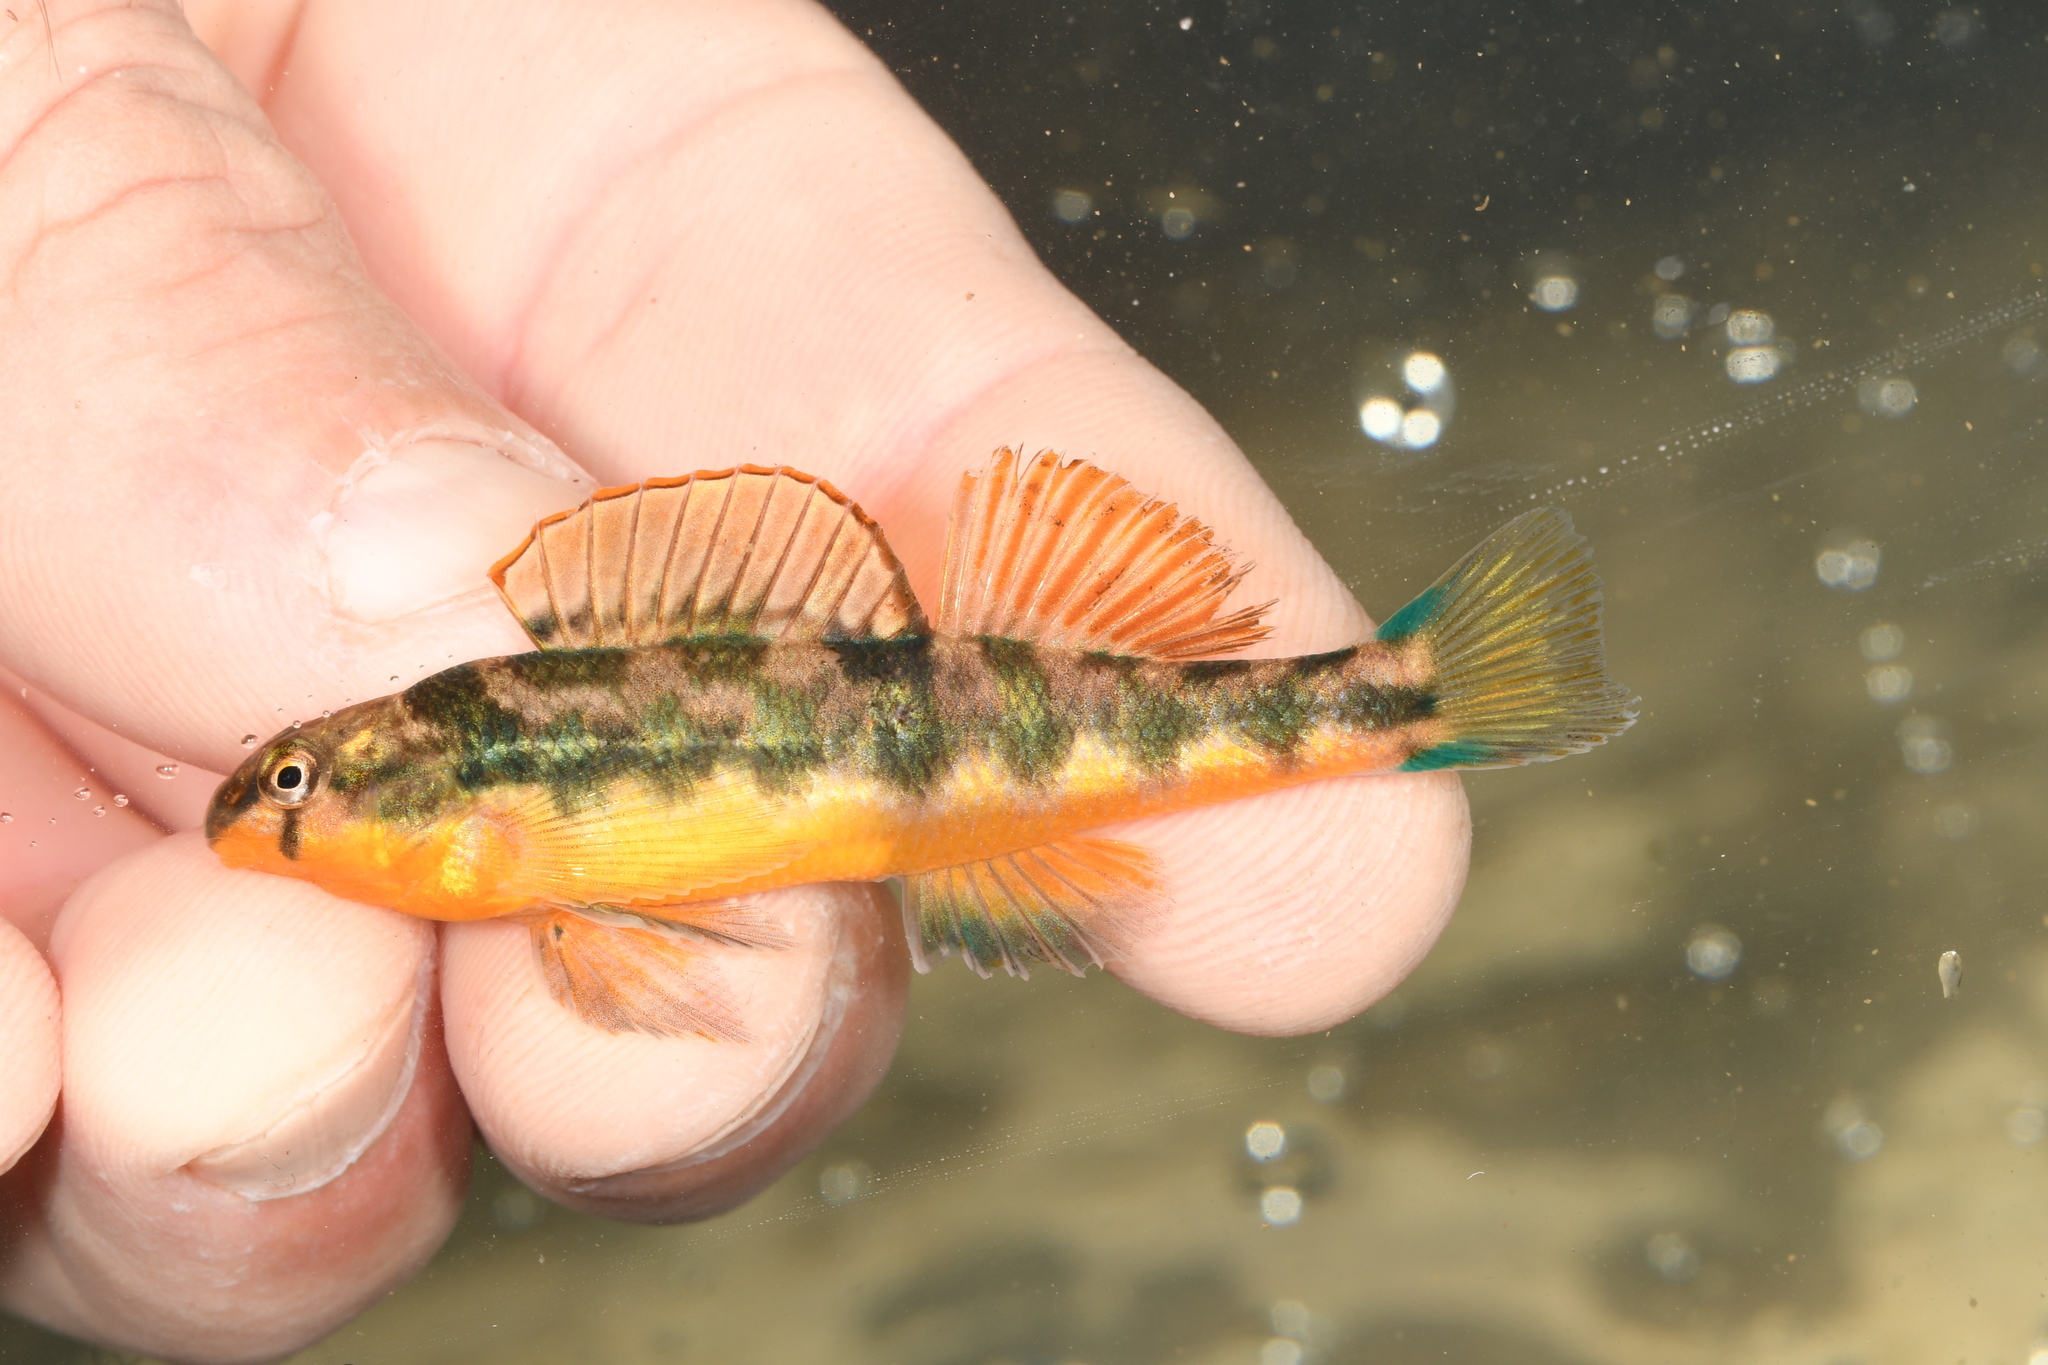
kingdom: Animalia
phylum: Chordata
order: Perciformes
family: Percidae
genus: Etheostoma
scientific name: Etheostoma flavum
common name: Saffron darter
